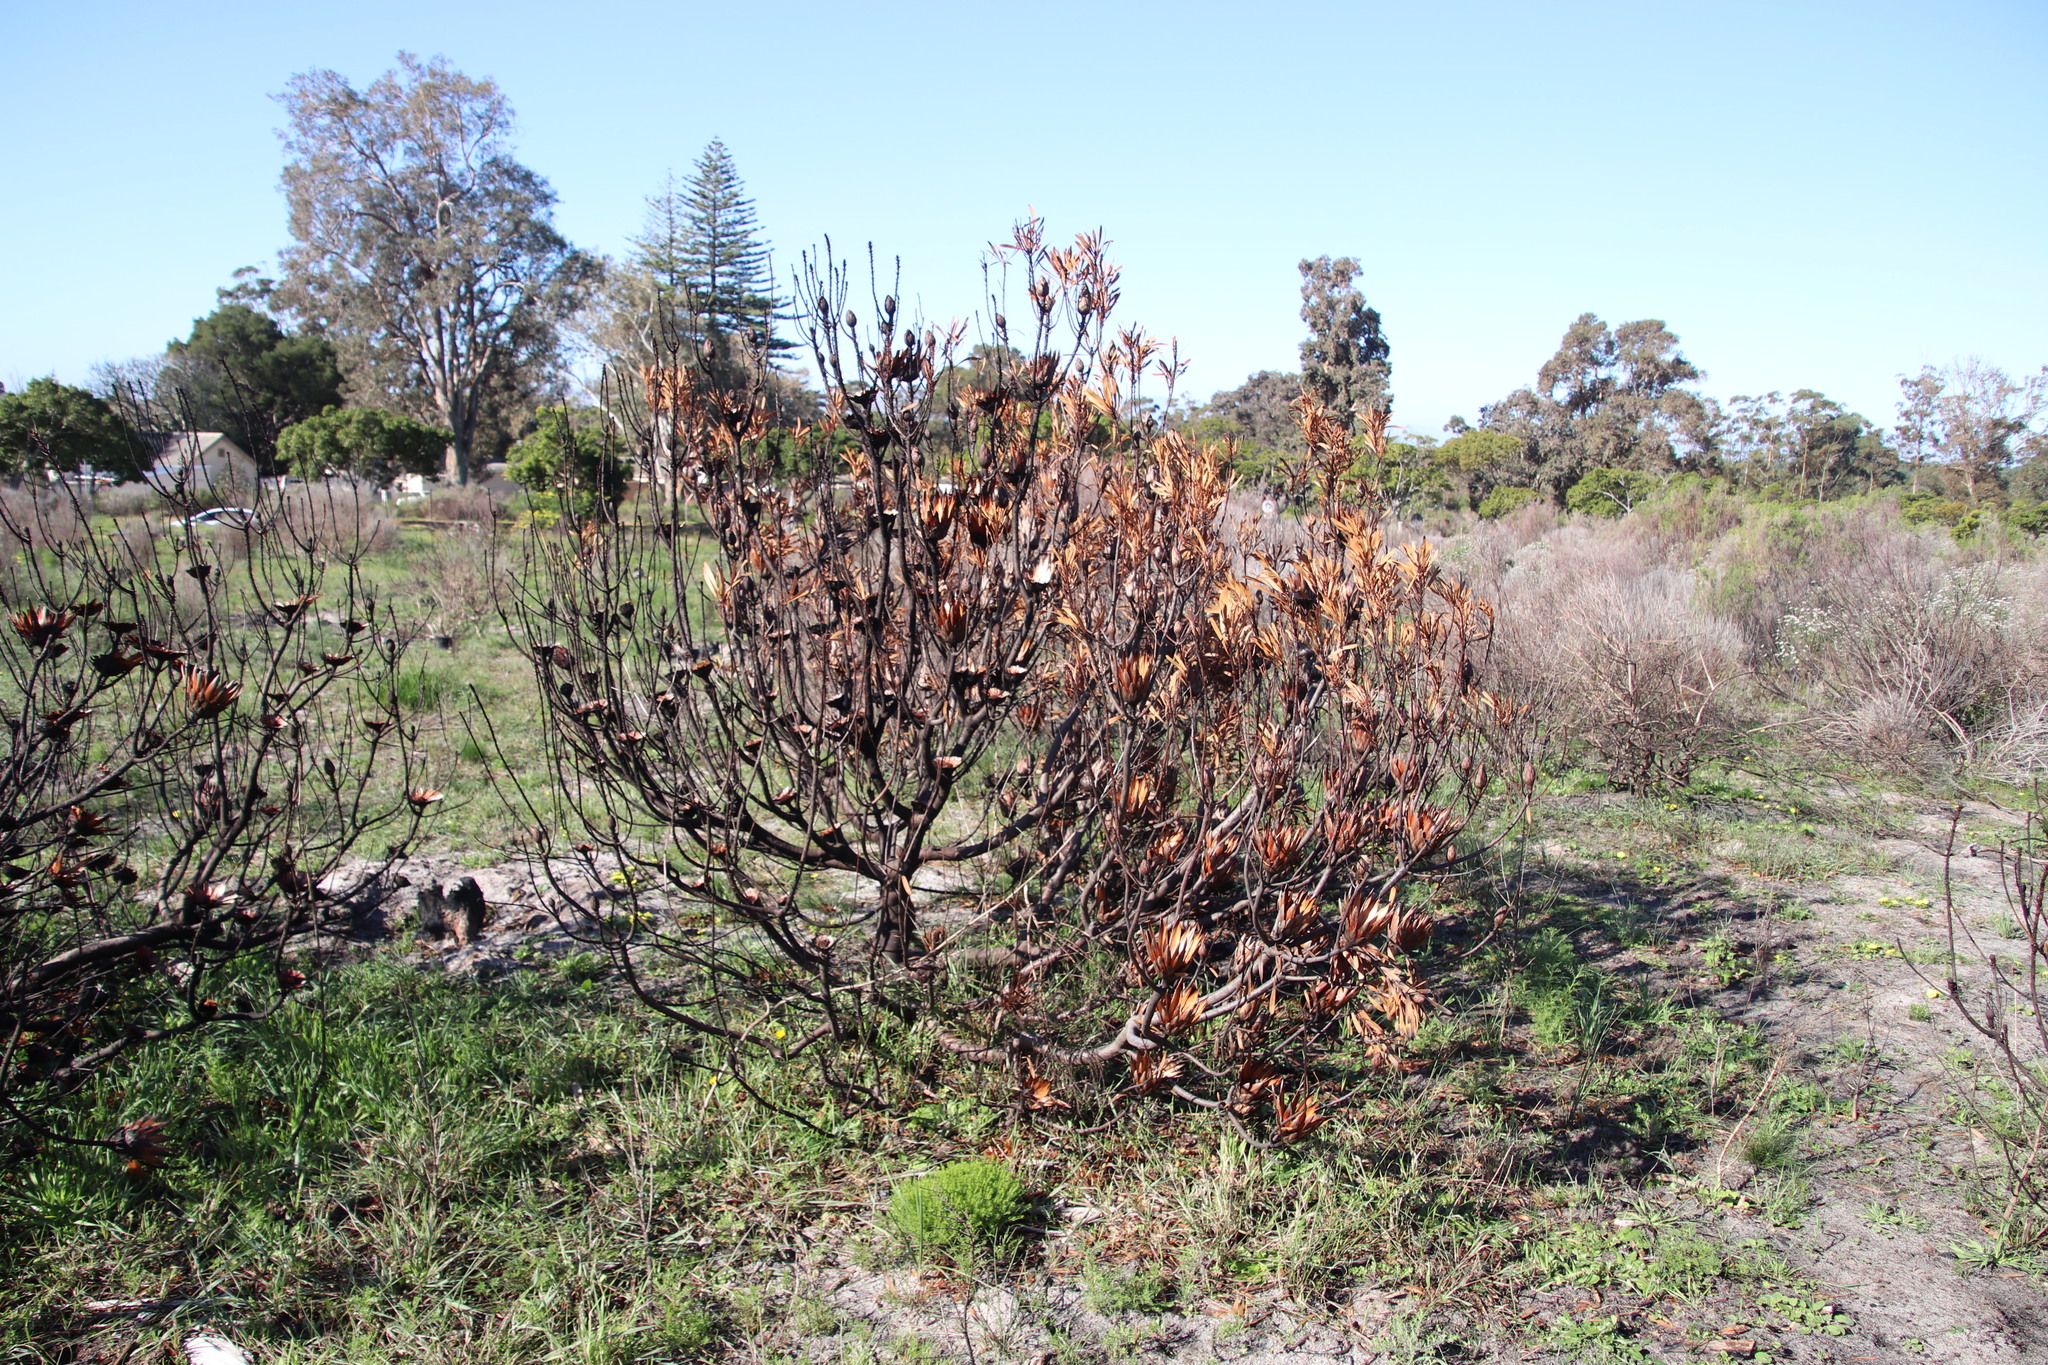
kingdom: Plantae
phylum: Tracheophyta
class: Magnoliopsida
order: Proteales
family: Proteaceae
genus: Protea
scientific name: Protea repens
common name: Sugarbush
